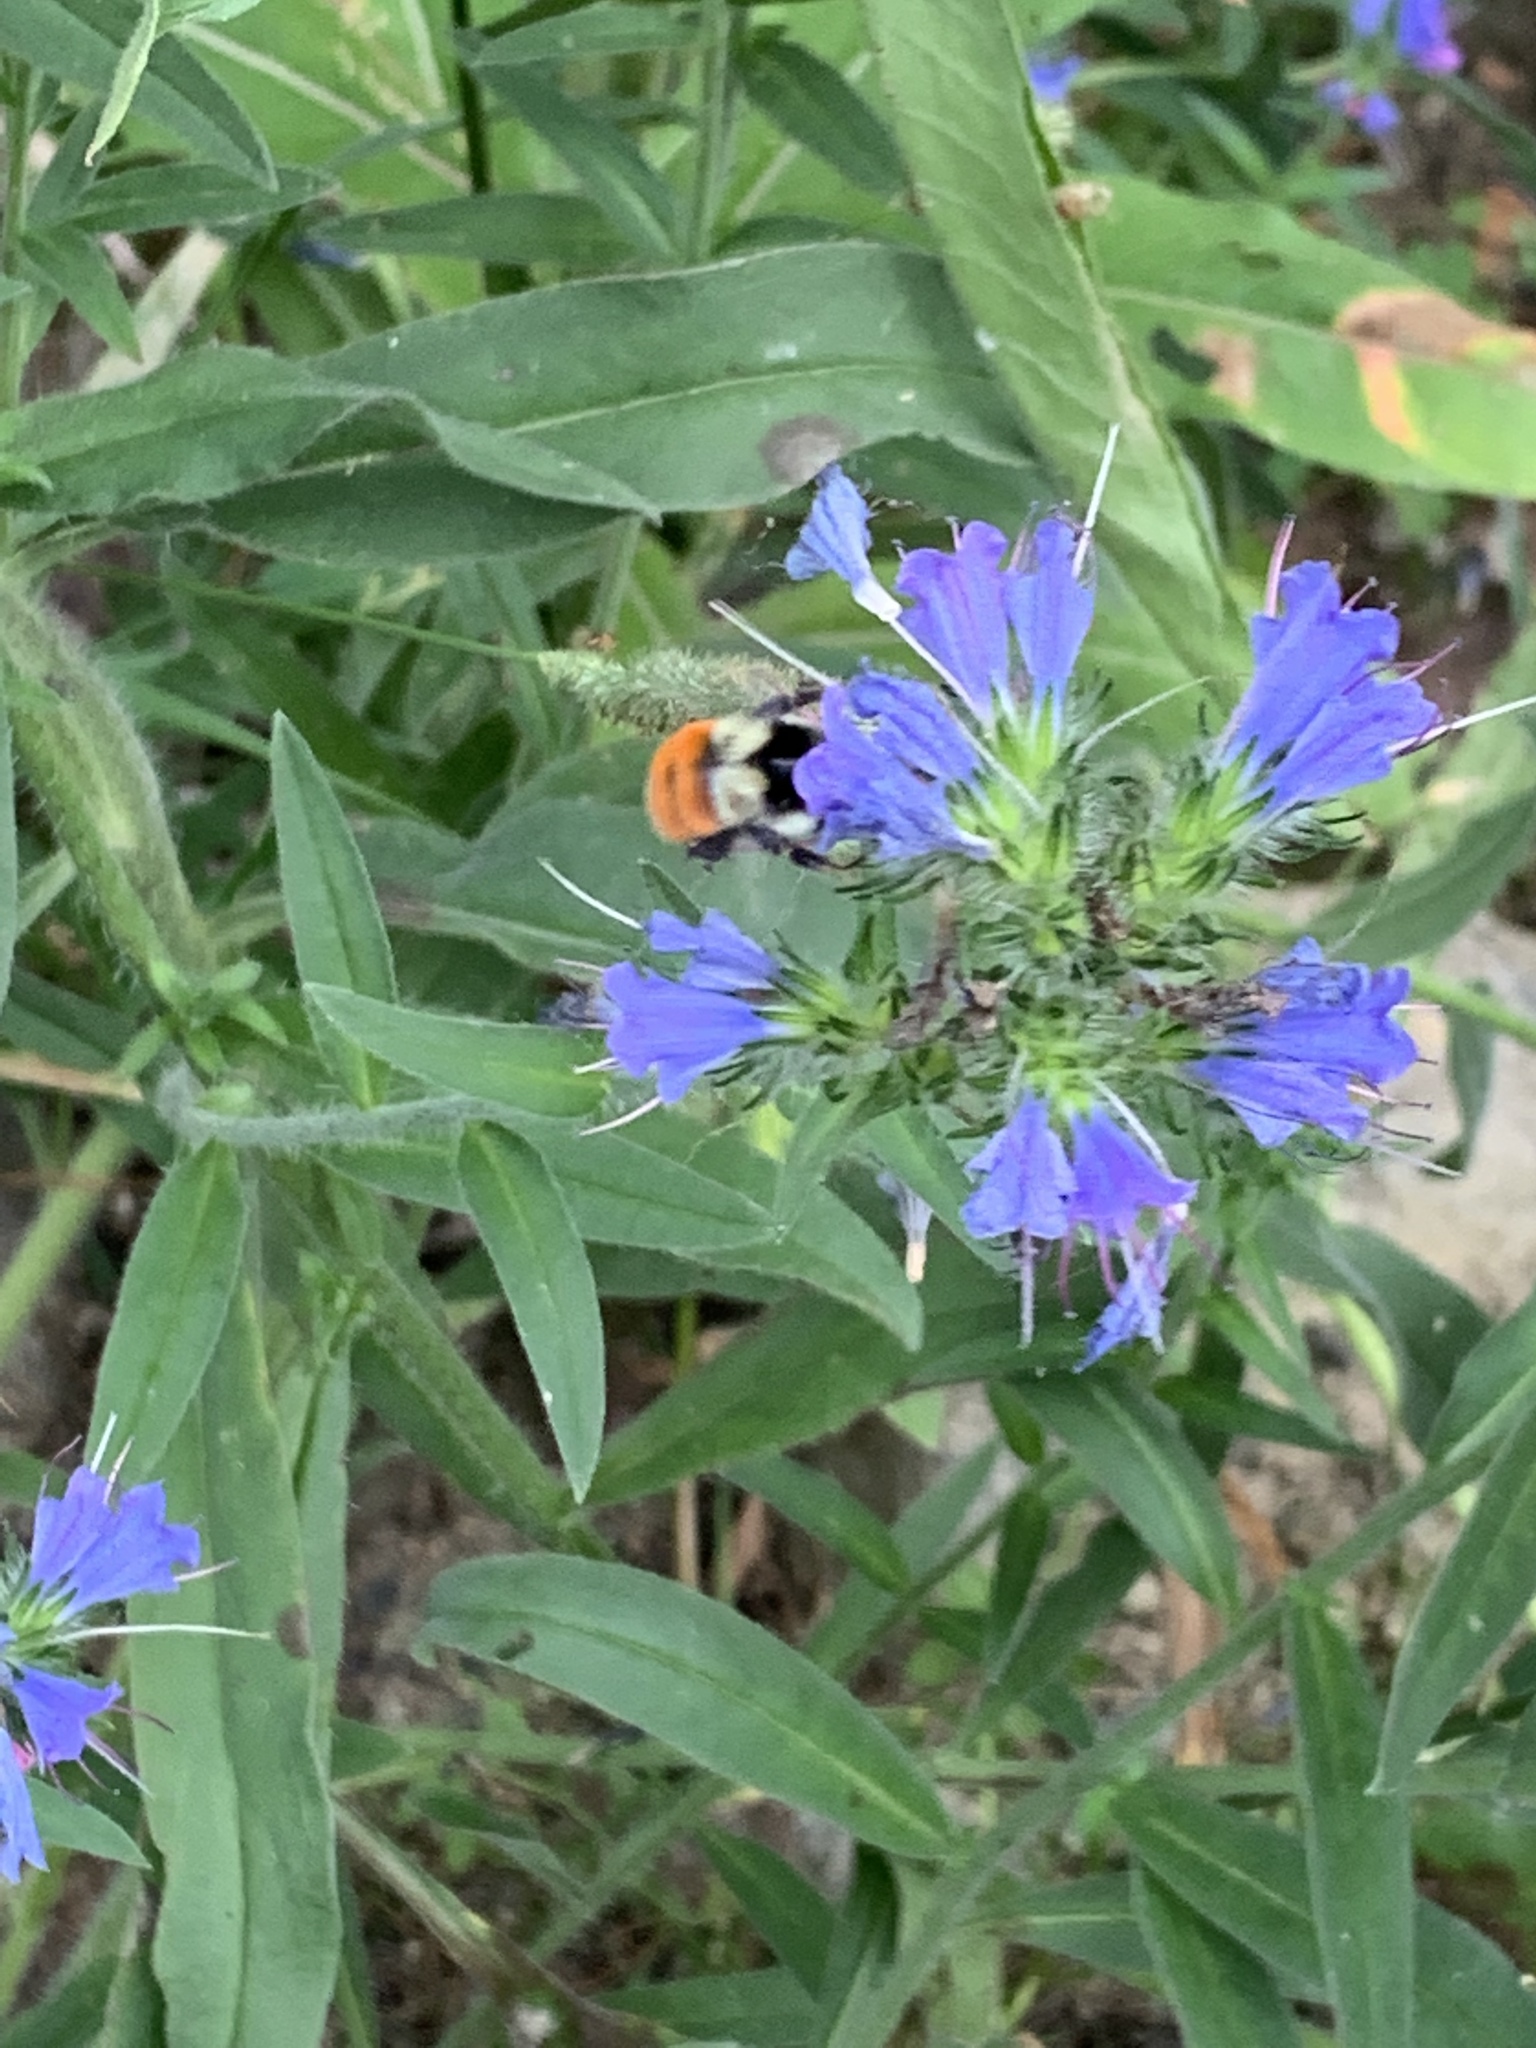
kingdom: Animalia
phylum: Arthropoda
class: Insecta
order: Hymenoptera
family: Apidae
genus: Bombus
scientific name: Bombus ternarius
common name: Tri-colored bumble bee
